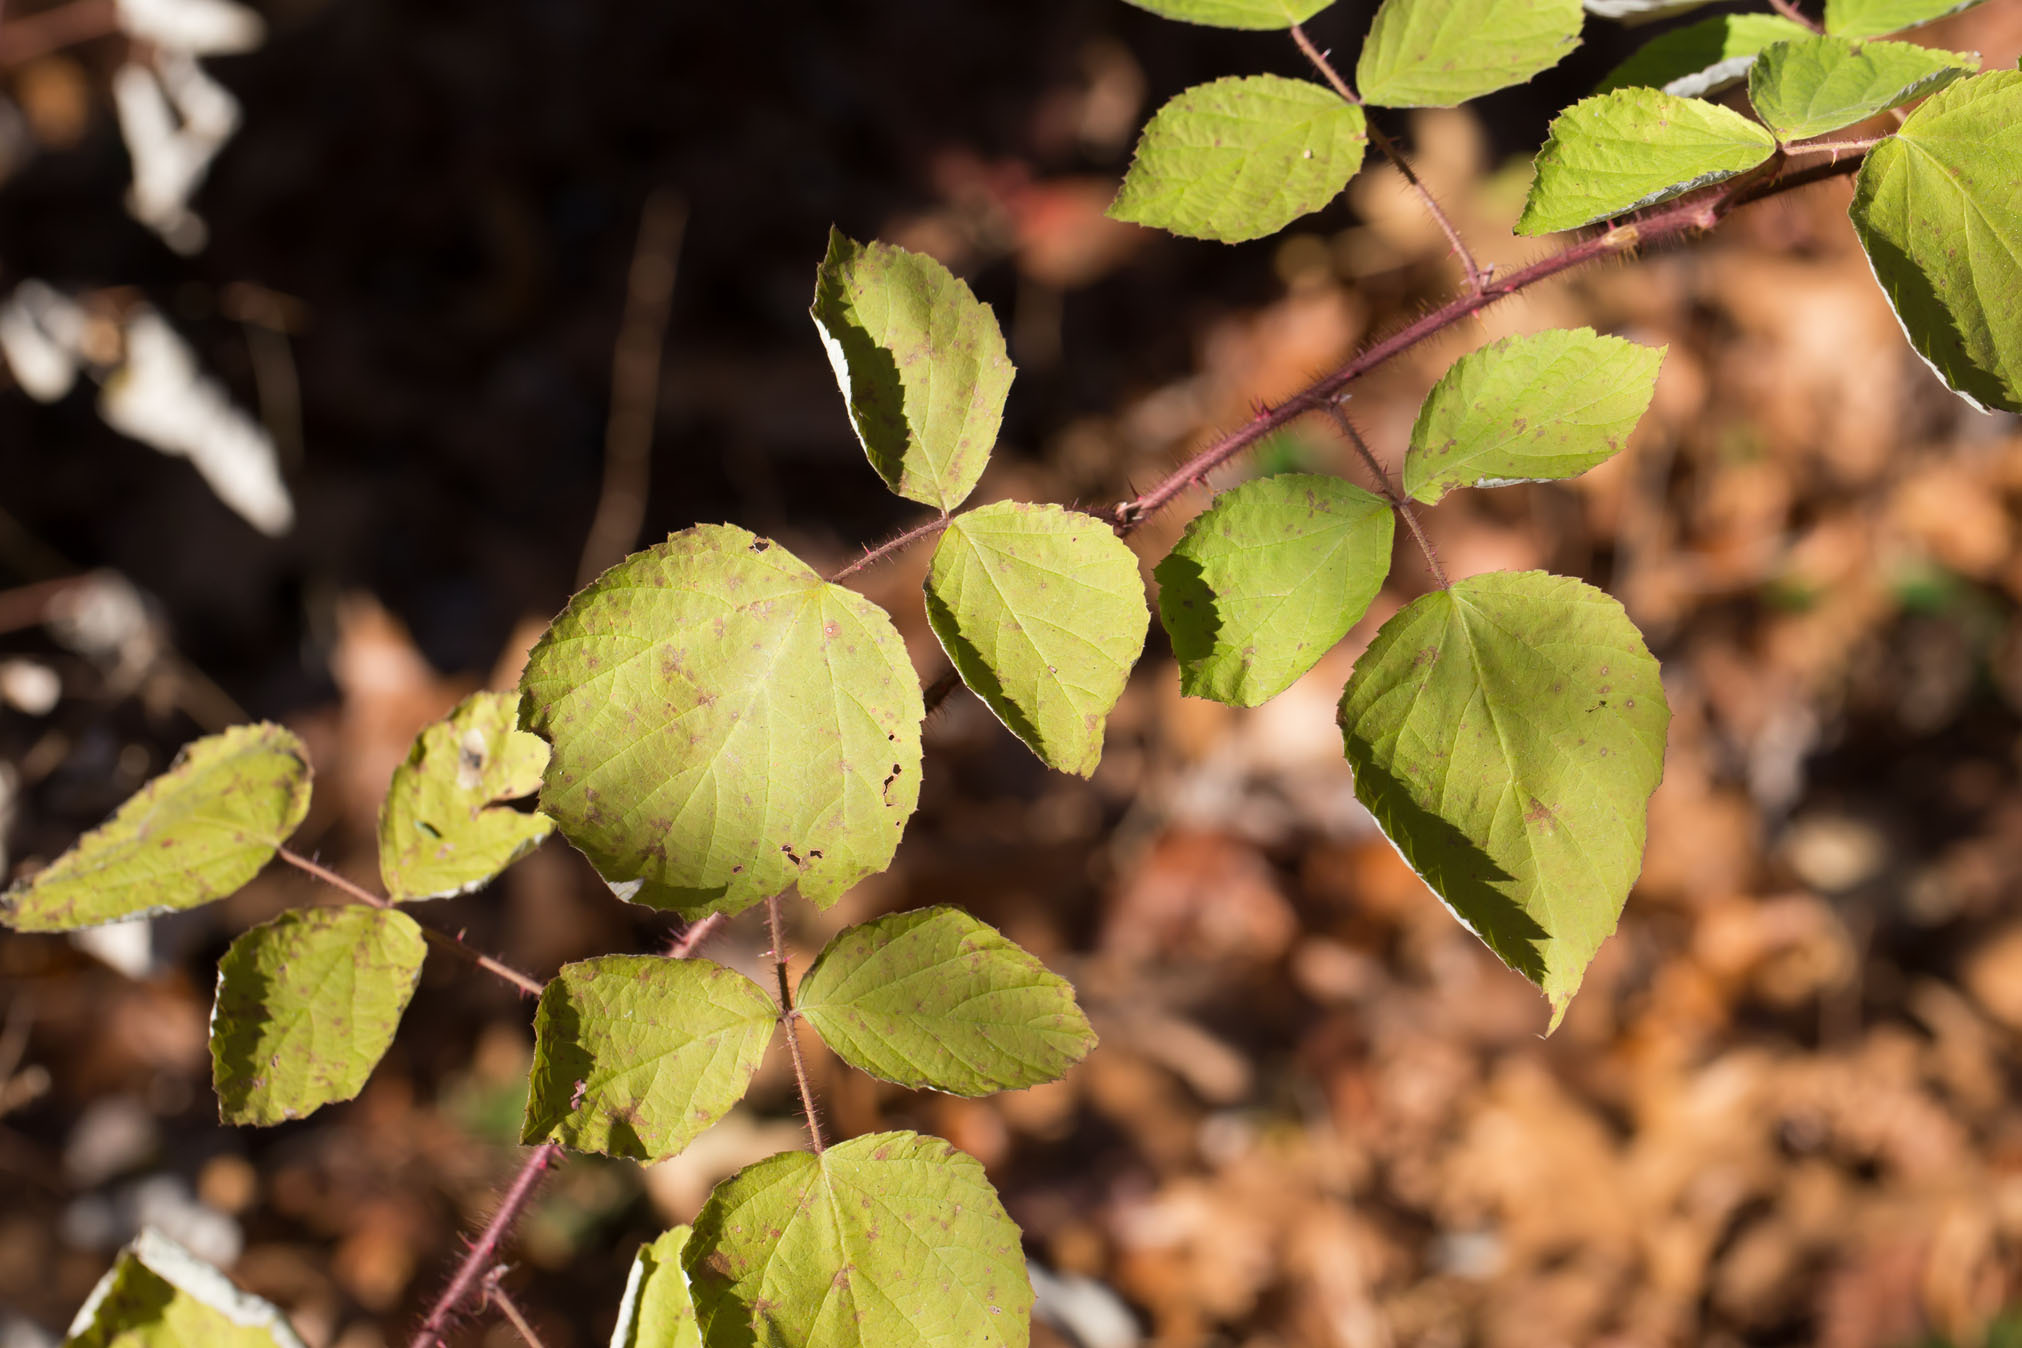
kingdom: Plantae
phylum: Tracheophyta
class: Magnoliopsida
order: Rosales
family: Rosaceae
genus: Rubus
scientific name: Rubus phoenicolasius
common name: Japanese wineberry
